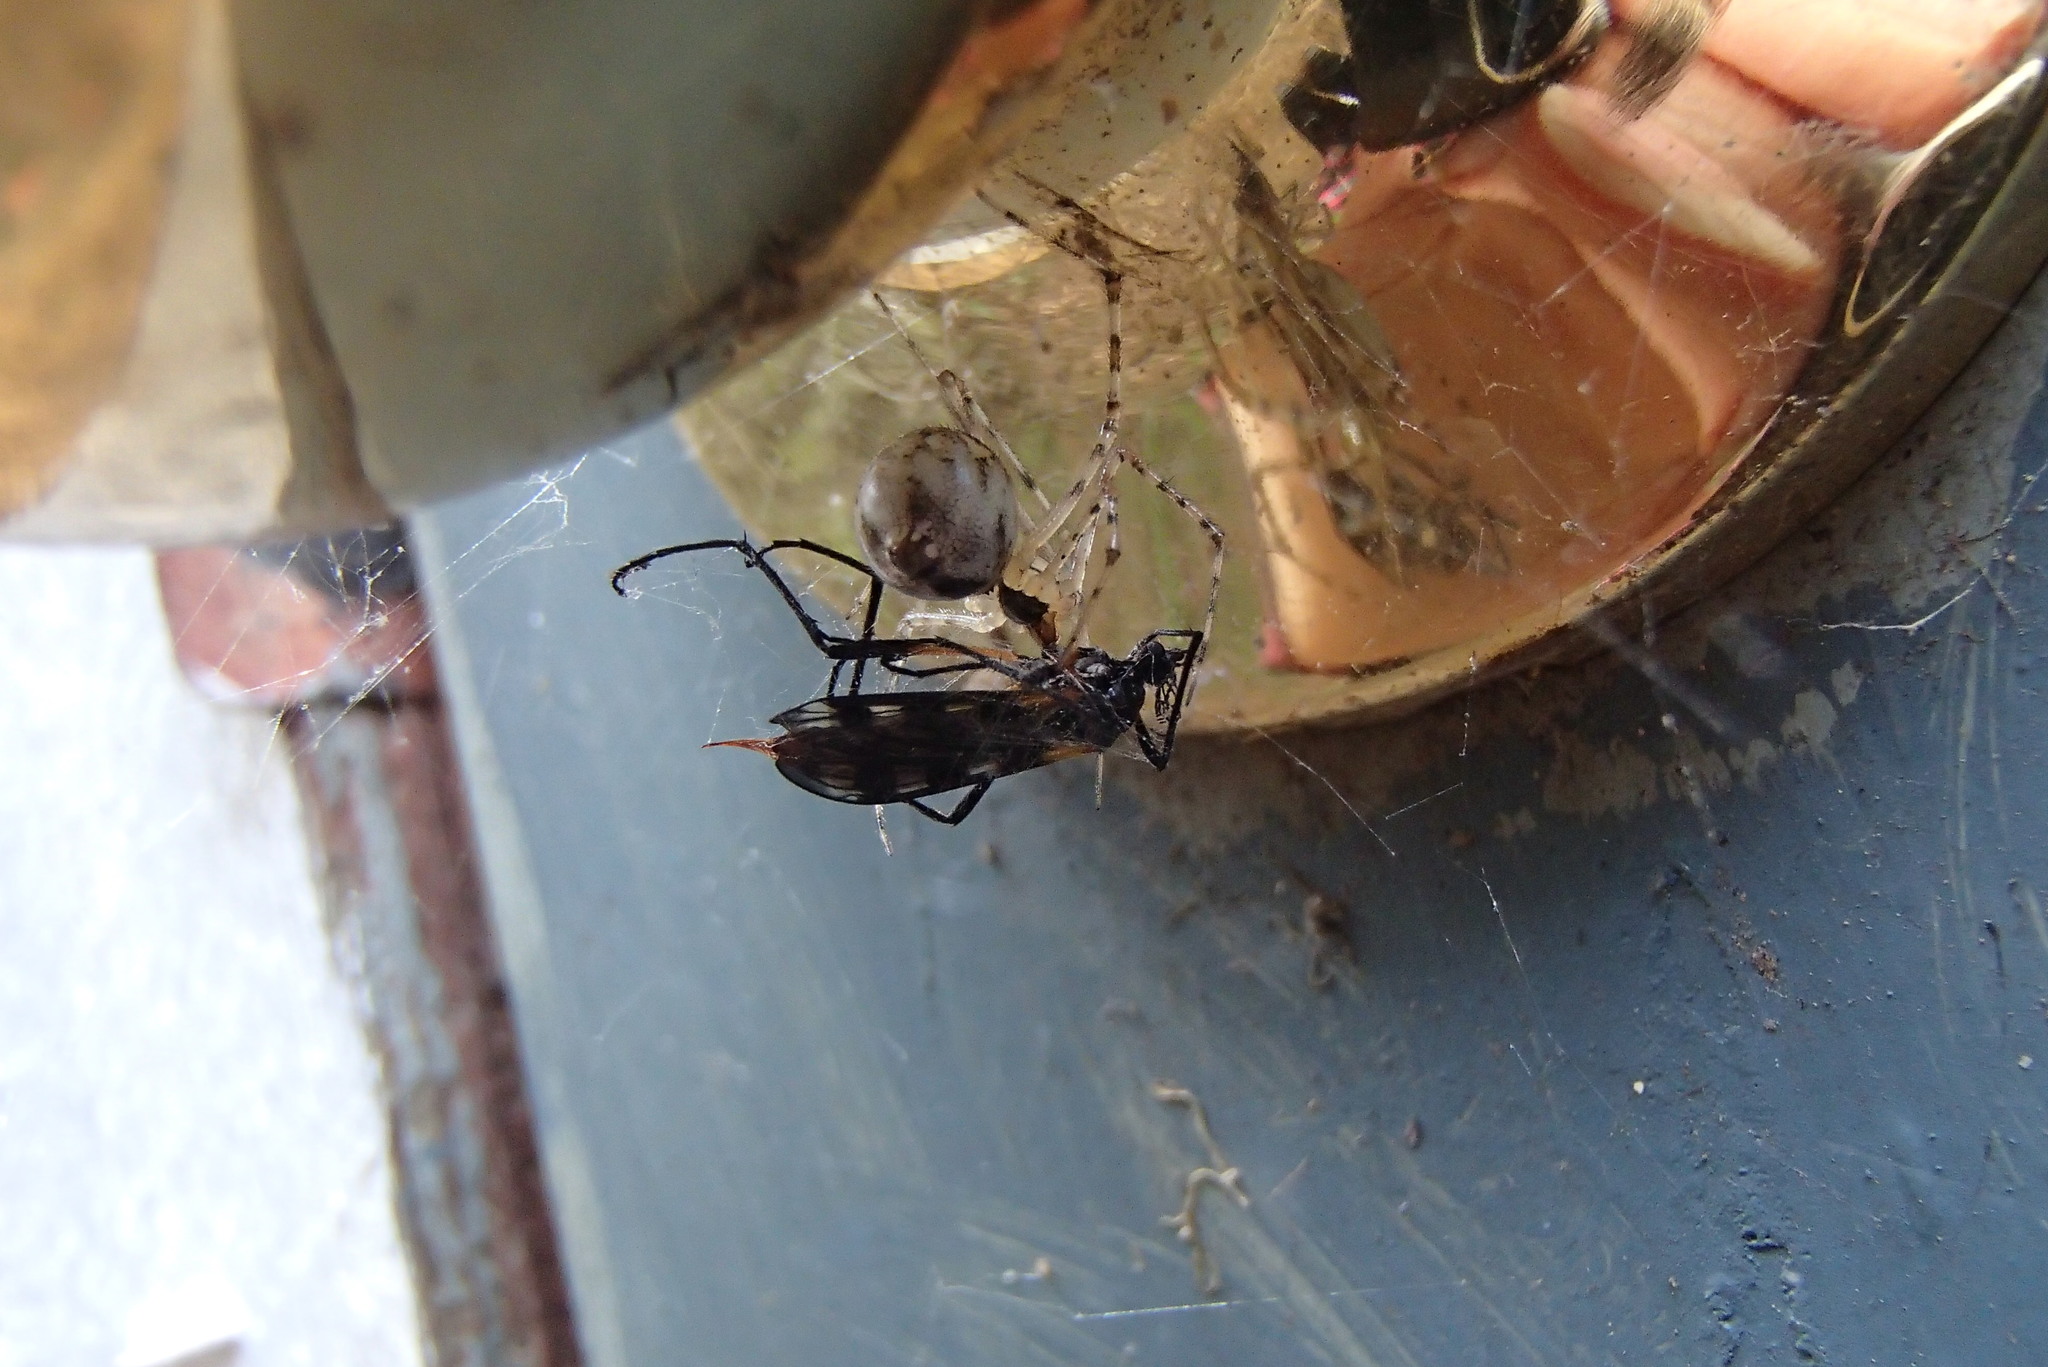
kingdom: Animalia
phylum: Arthropoda
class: Arachnida
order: Araneae
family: Theridiidae
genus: Cryptachaea
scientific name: Cryptachaea gigantipes
